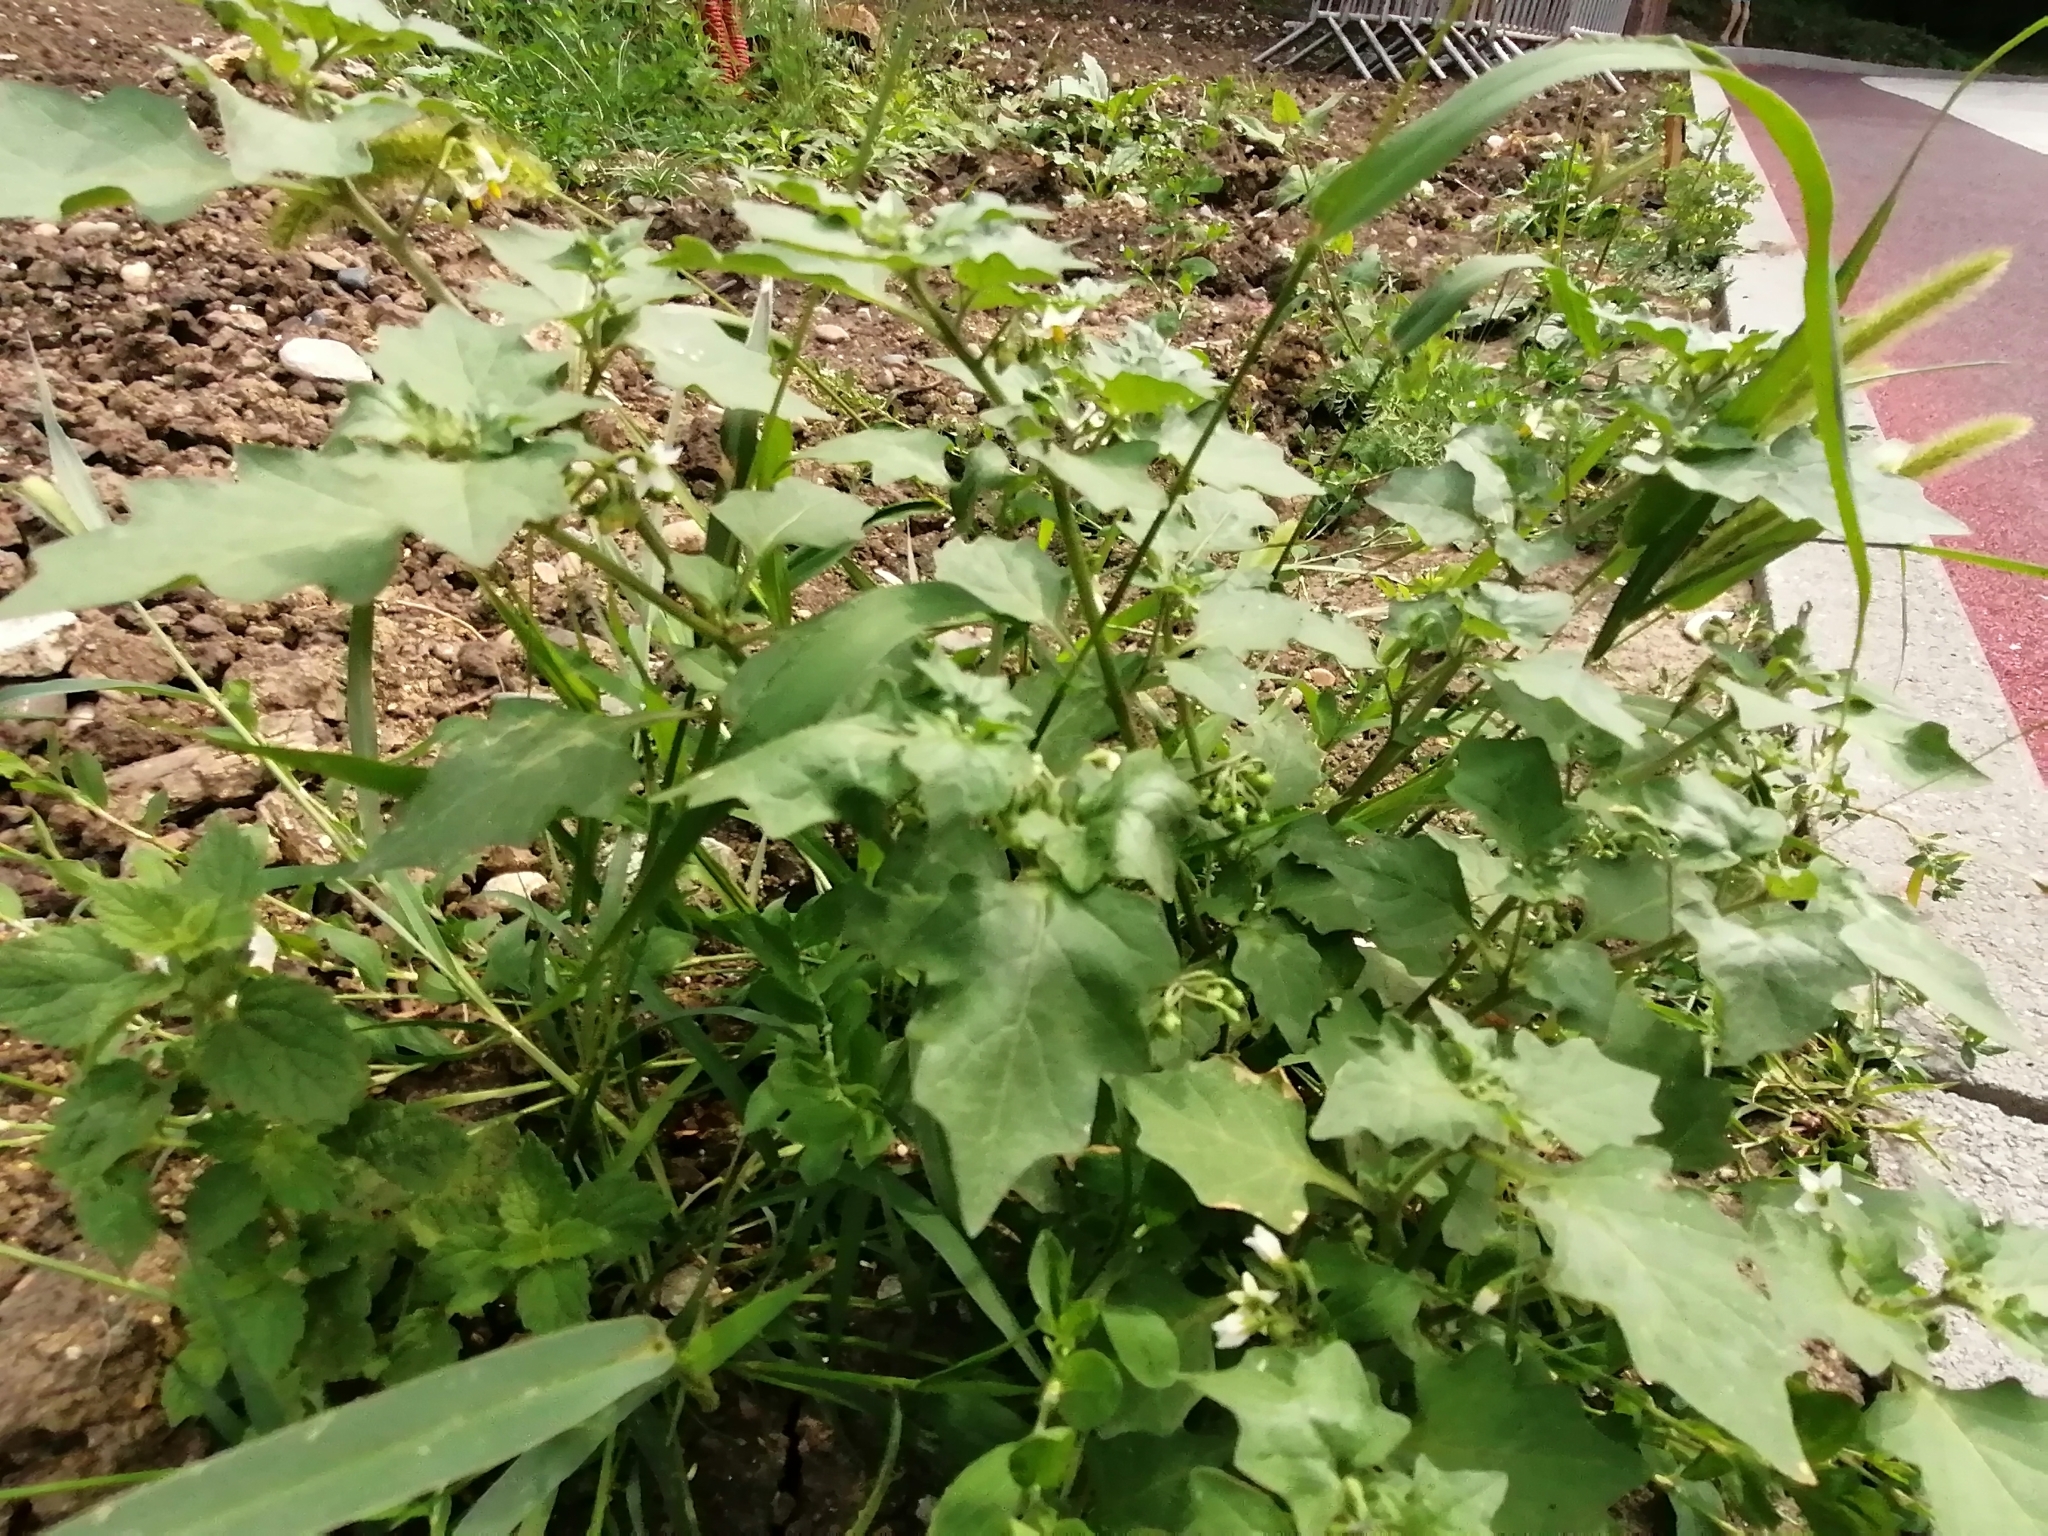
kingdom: Plantae
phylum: Tracheophyta
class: Magnoliopsida
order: Solanales
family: Solanaceae
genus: Solanum
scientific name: Solanum nigrum
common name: Black nightshade
